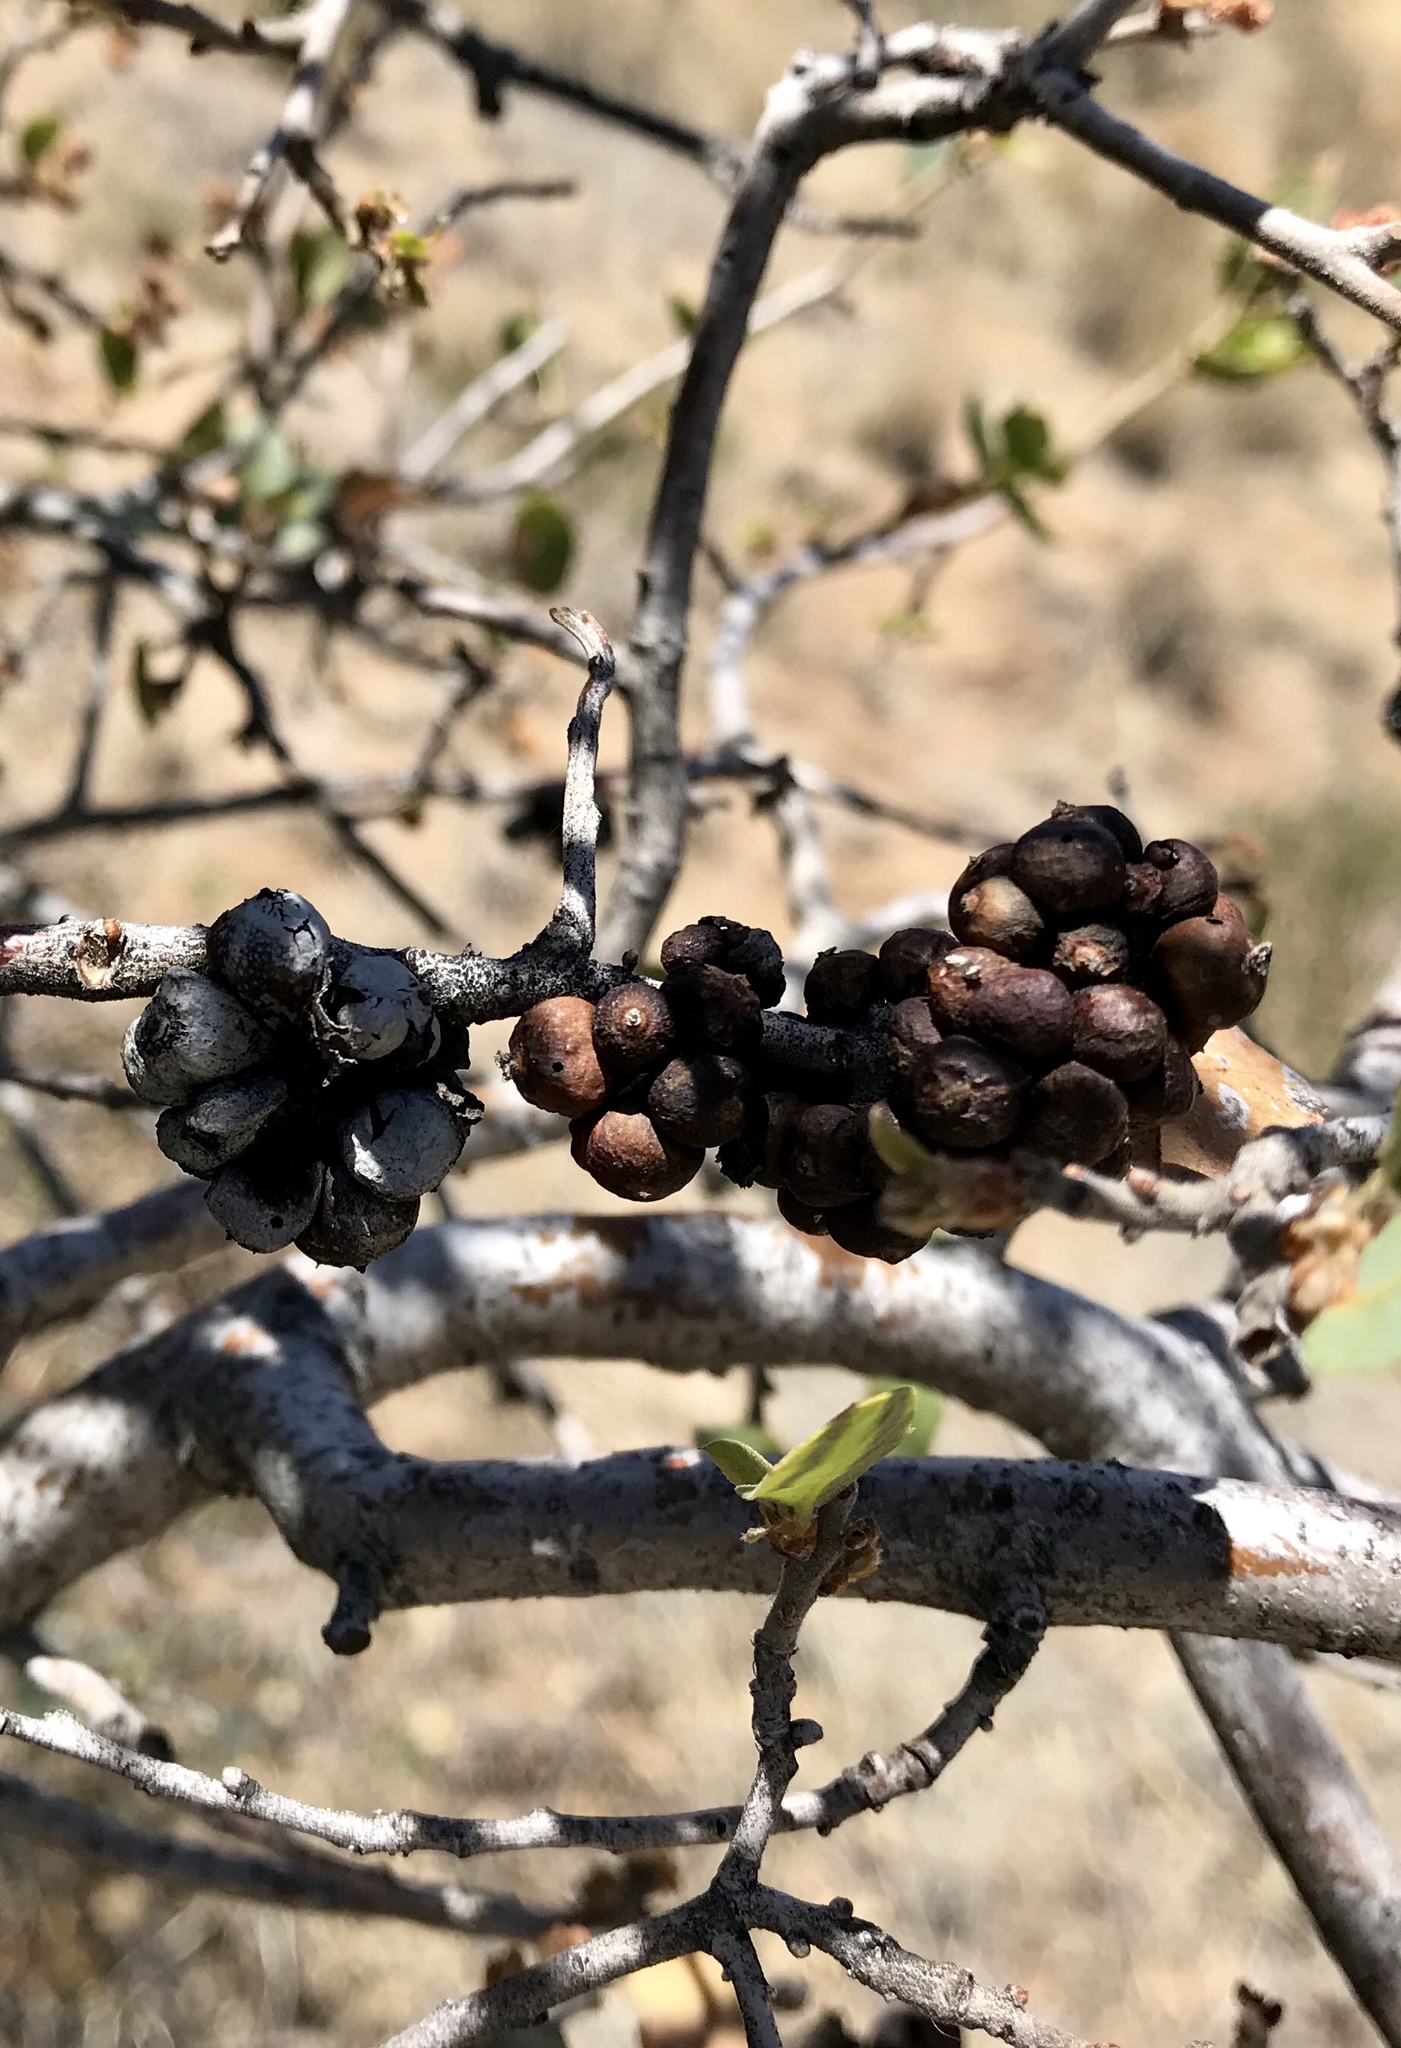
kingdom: Animalia
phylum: Arthropoda
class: Insecta
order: Hymenoptera
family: Cynipidae
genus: Andricus
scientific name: Andricus
